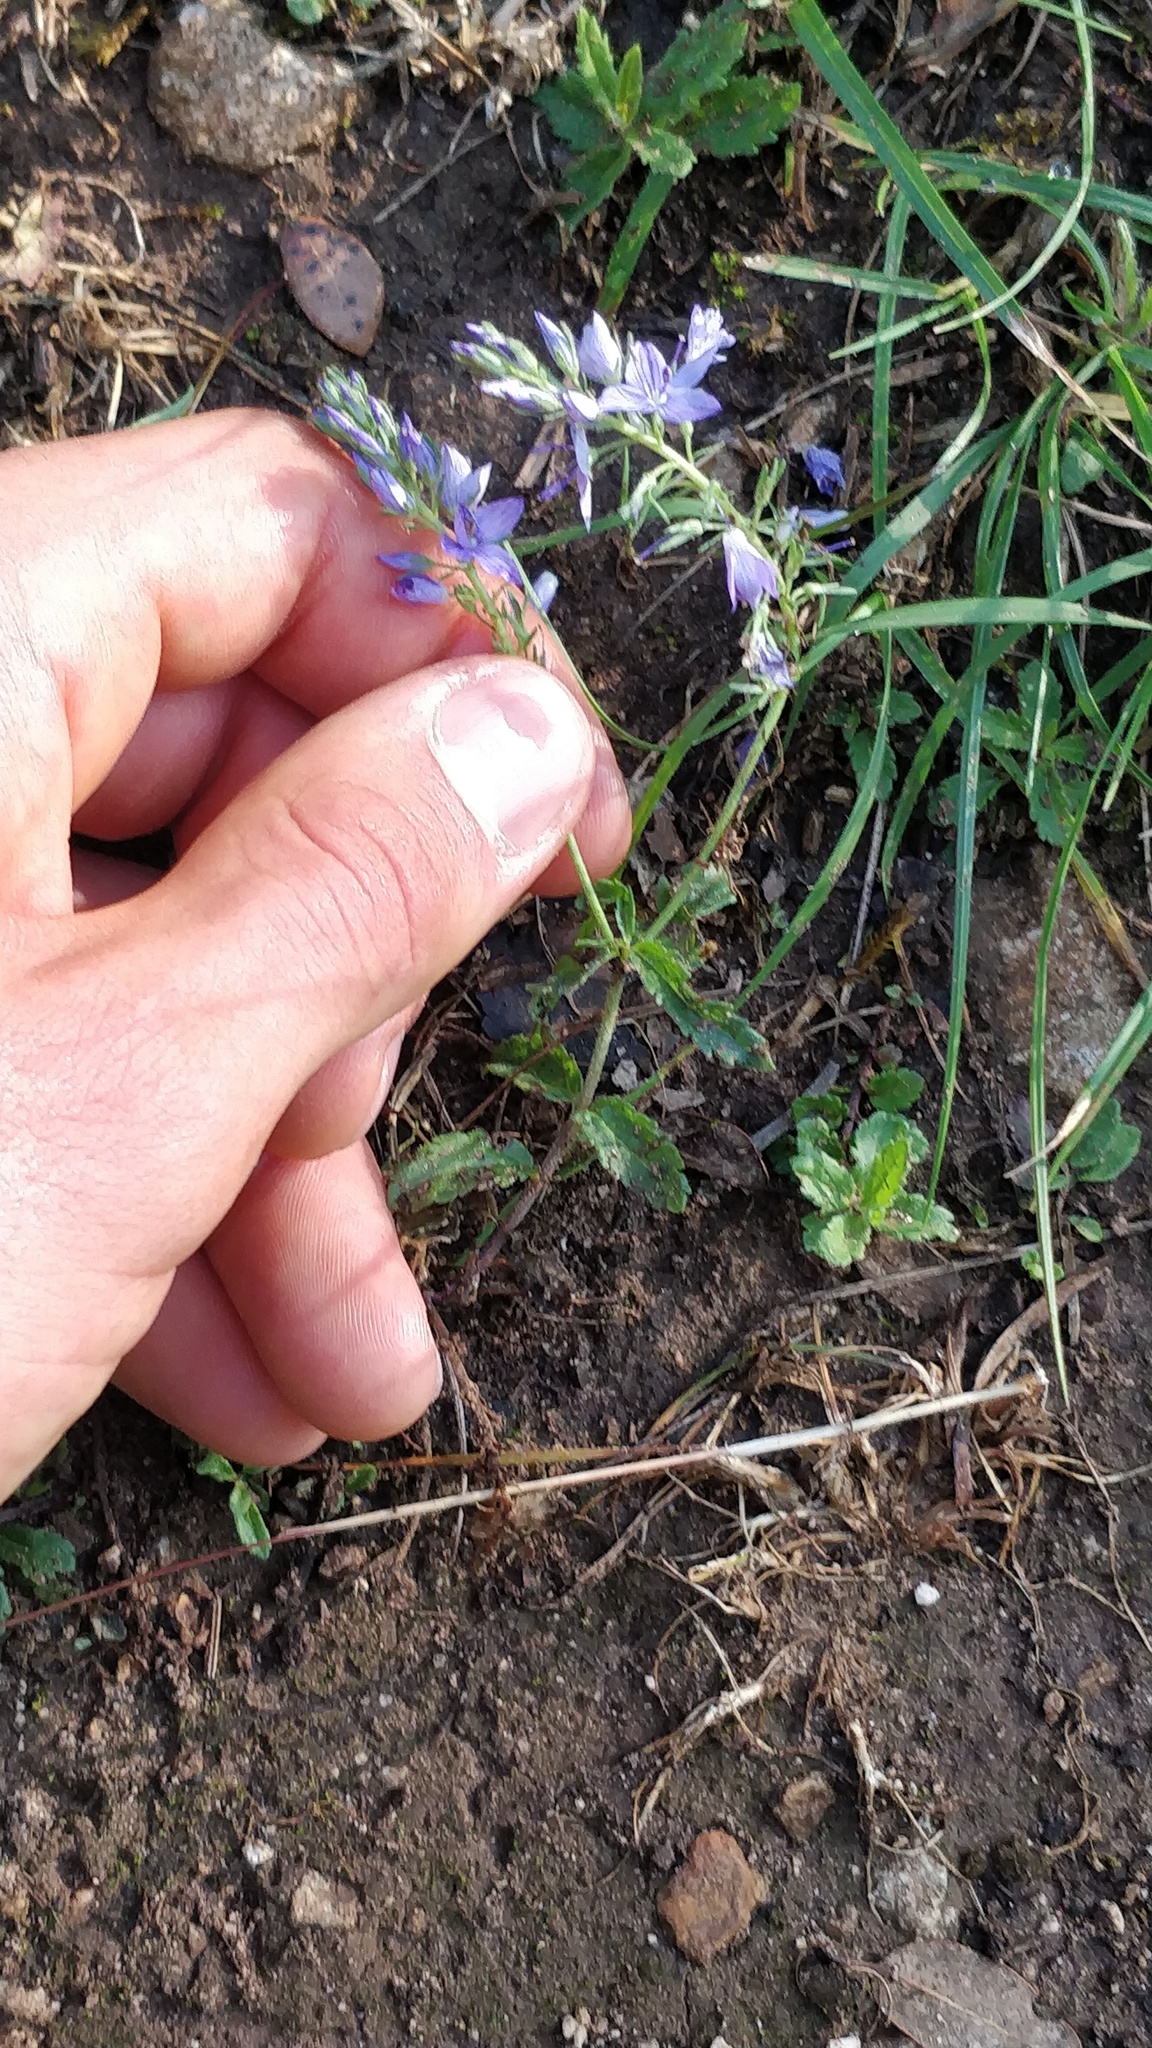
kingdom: Plantae
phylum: Tracheophyta
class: Magnoliopsida
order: Lamiales
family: Plantaginaceae
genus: Veronica
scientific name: Veronica orsiniana
